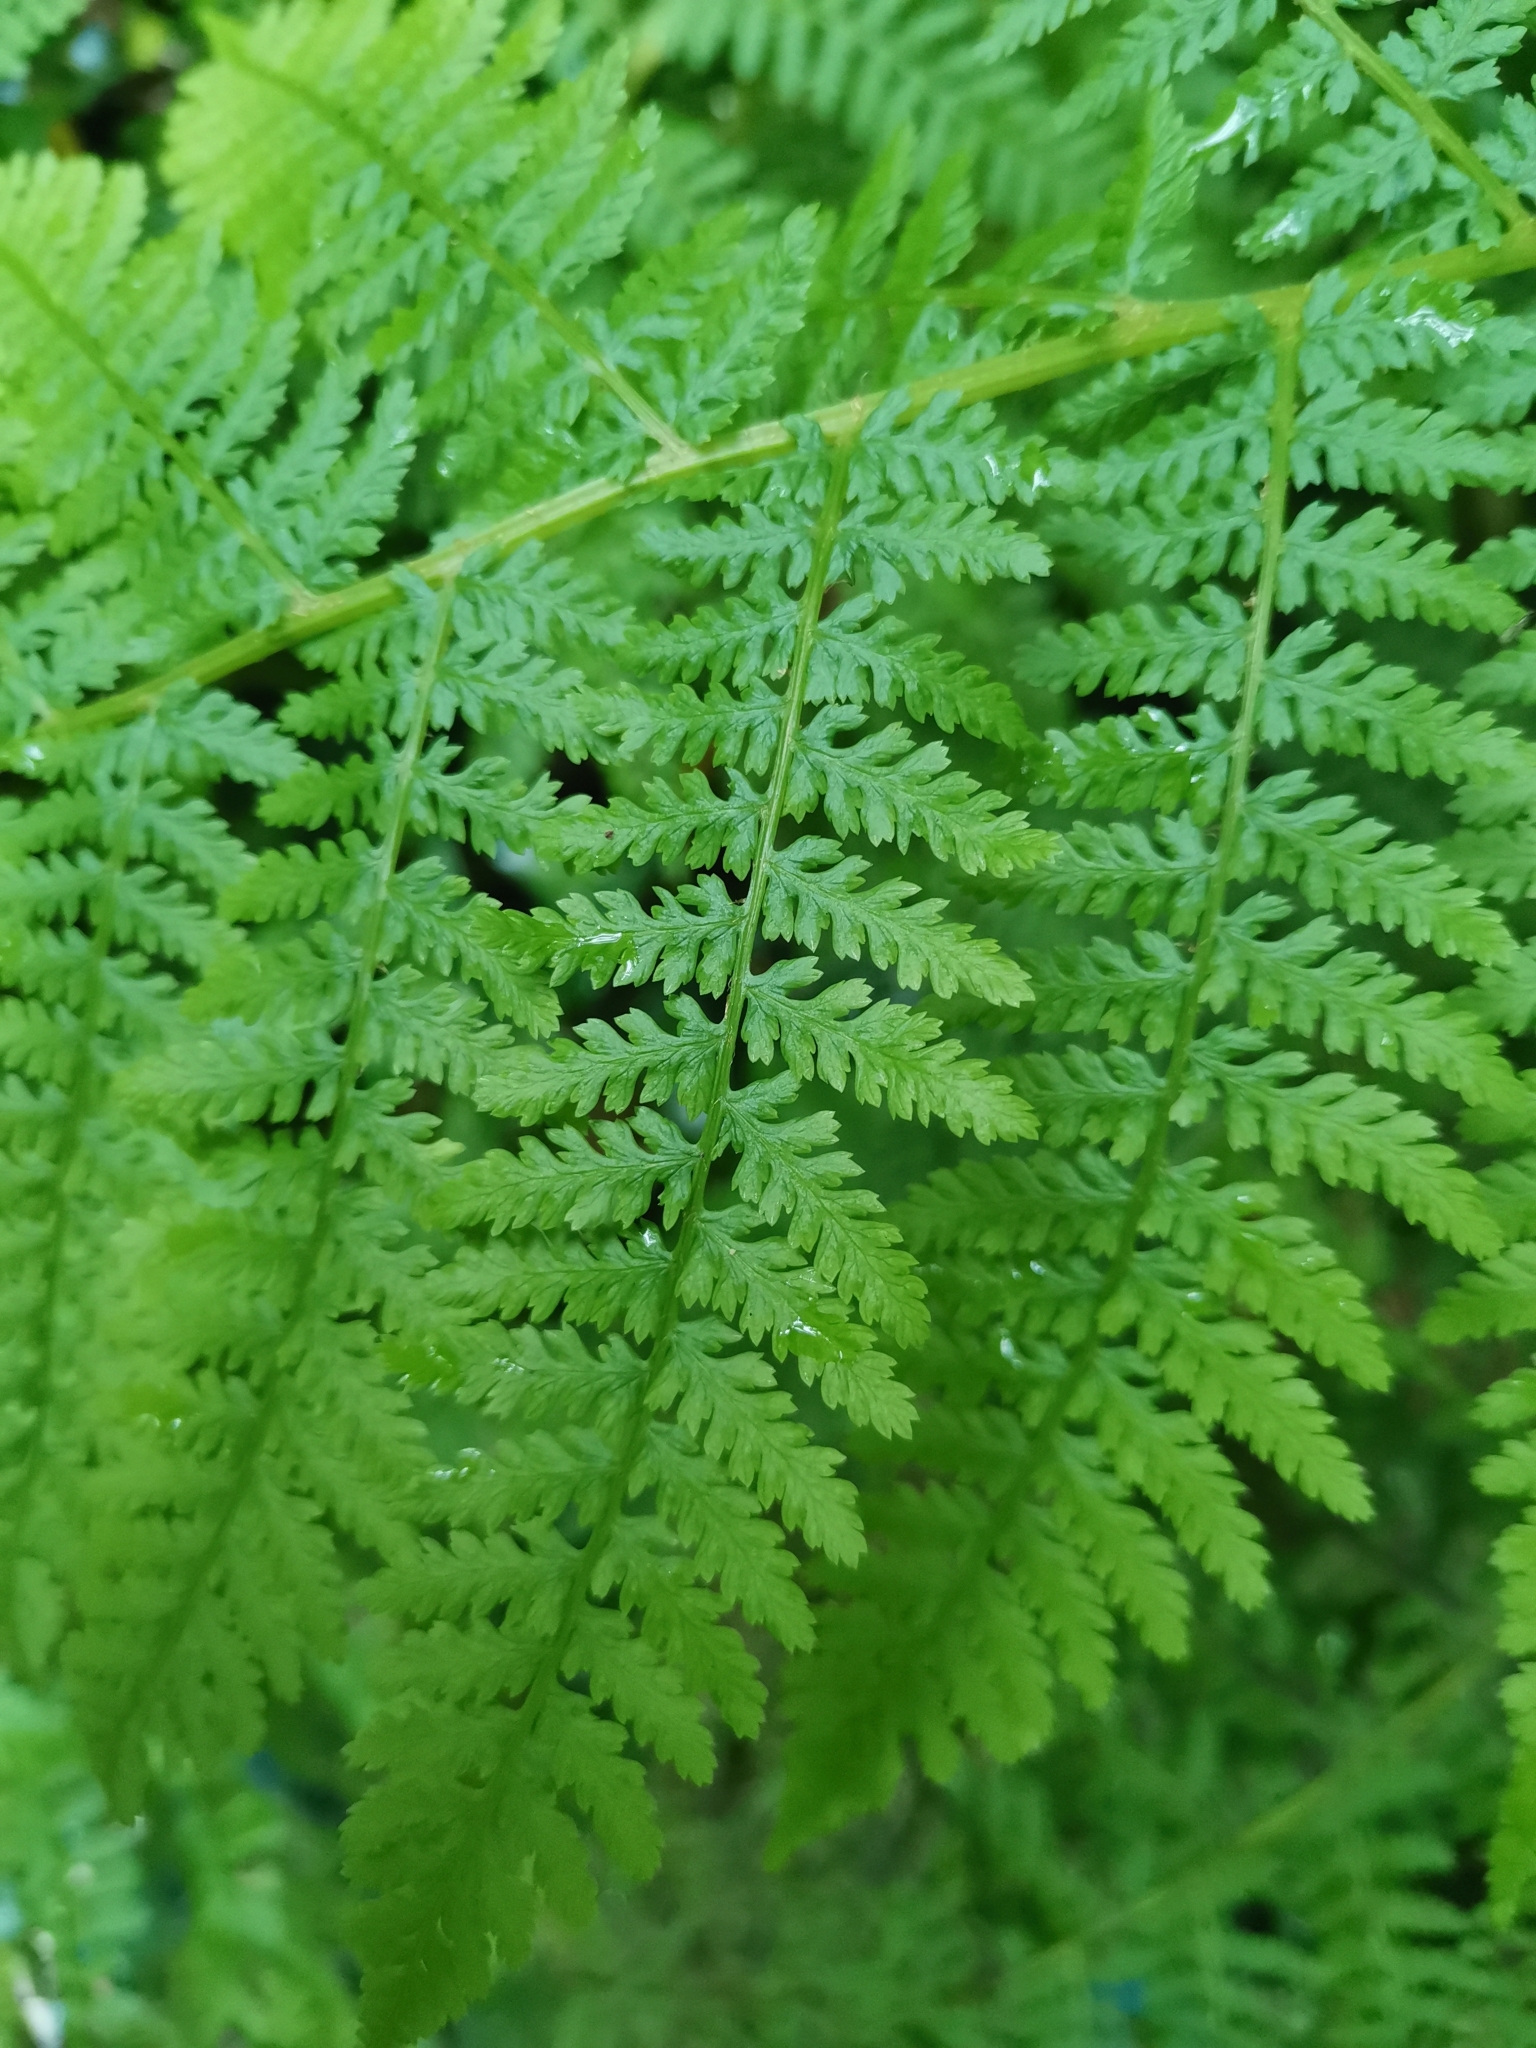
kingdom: Plantae
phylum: Tracheophyta
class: Polypodiopsida
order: Polypodiales
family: Athyriaceae
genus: Athyrium
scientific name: Athyrium filix-femina
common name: Lady fern
